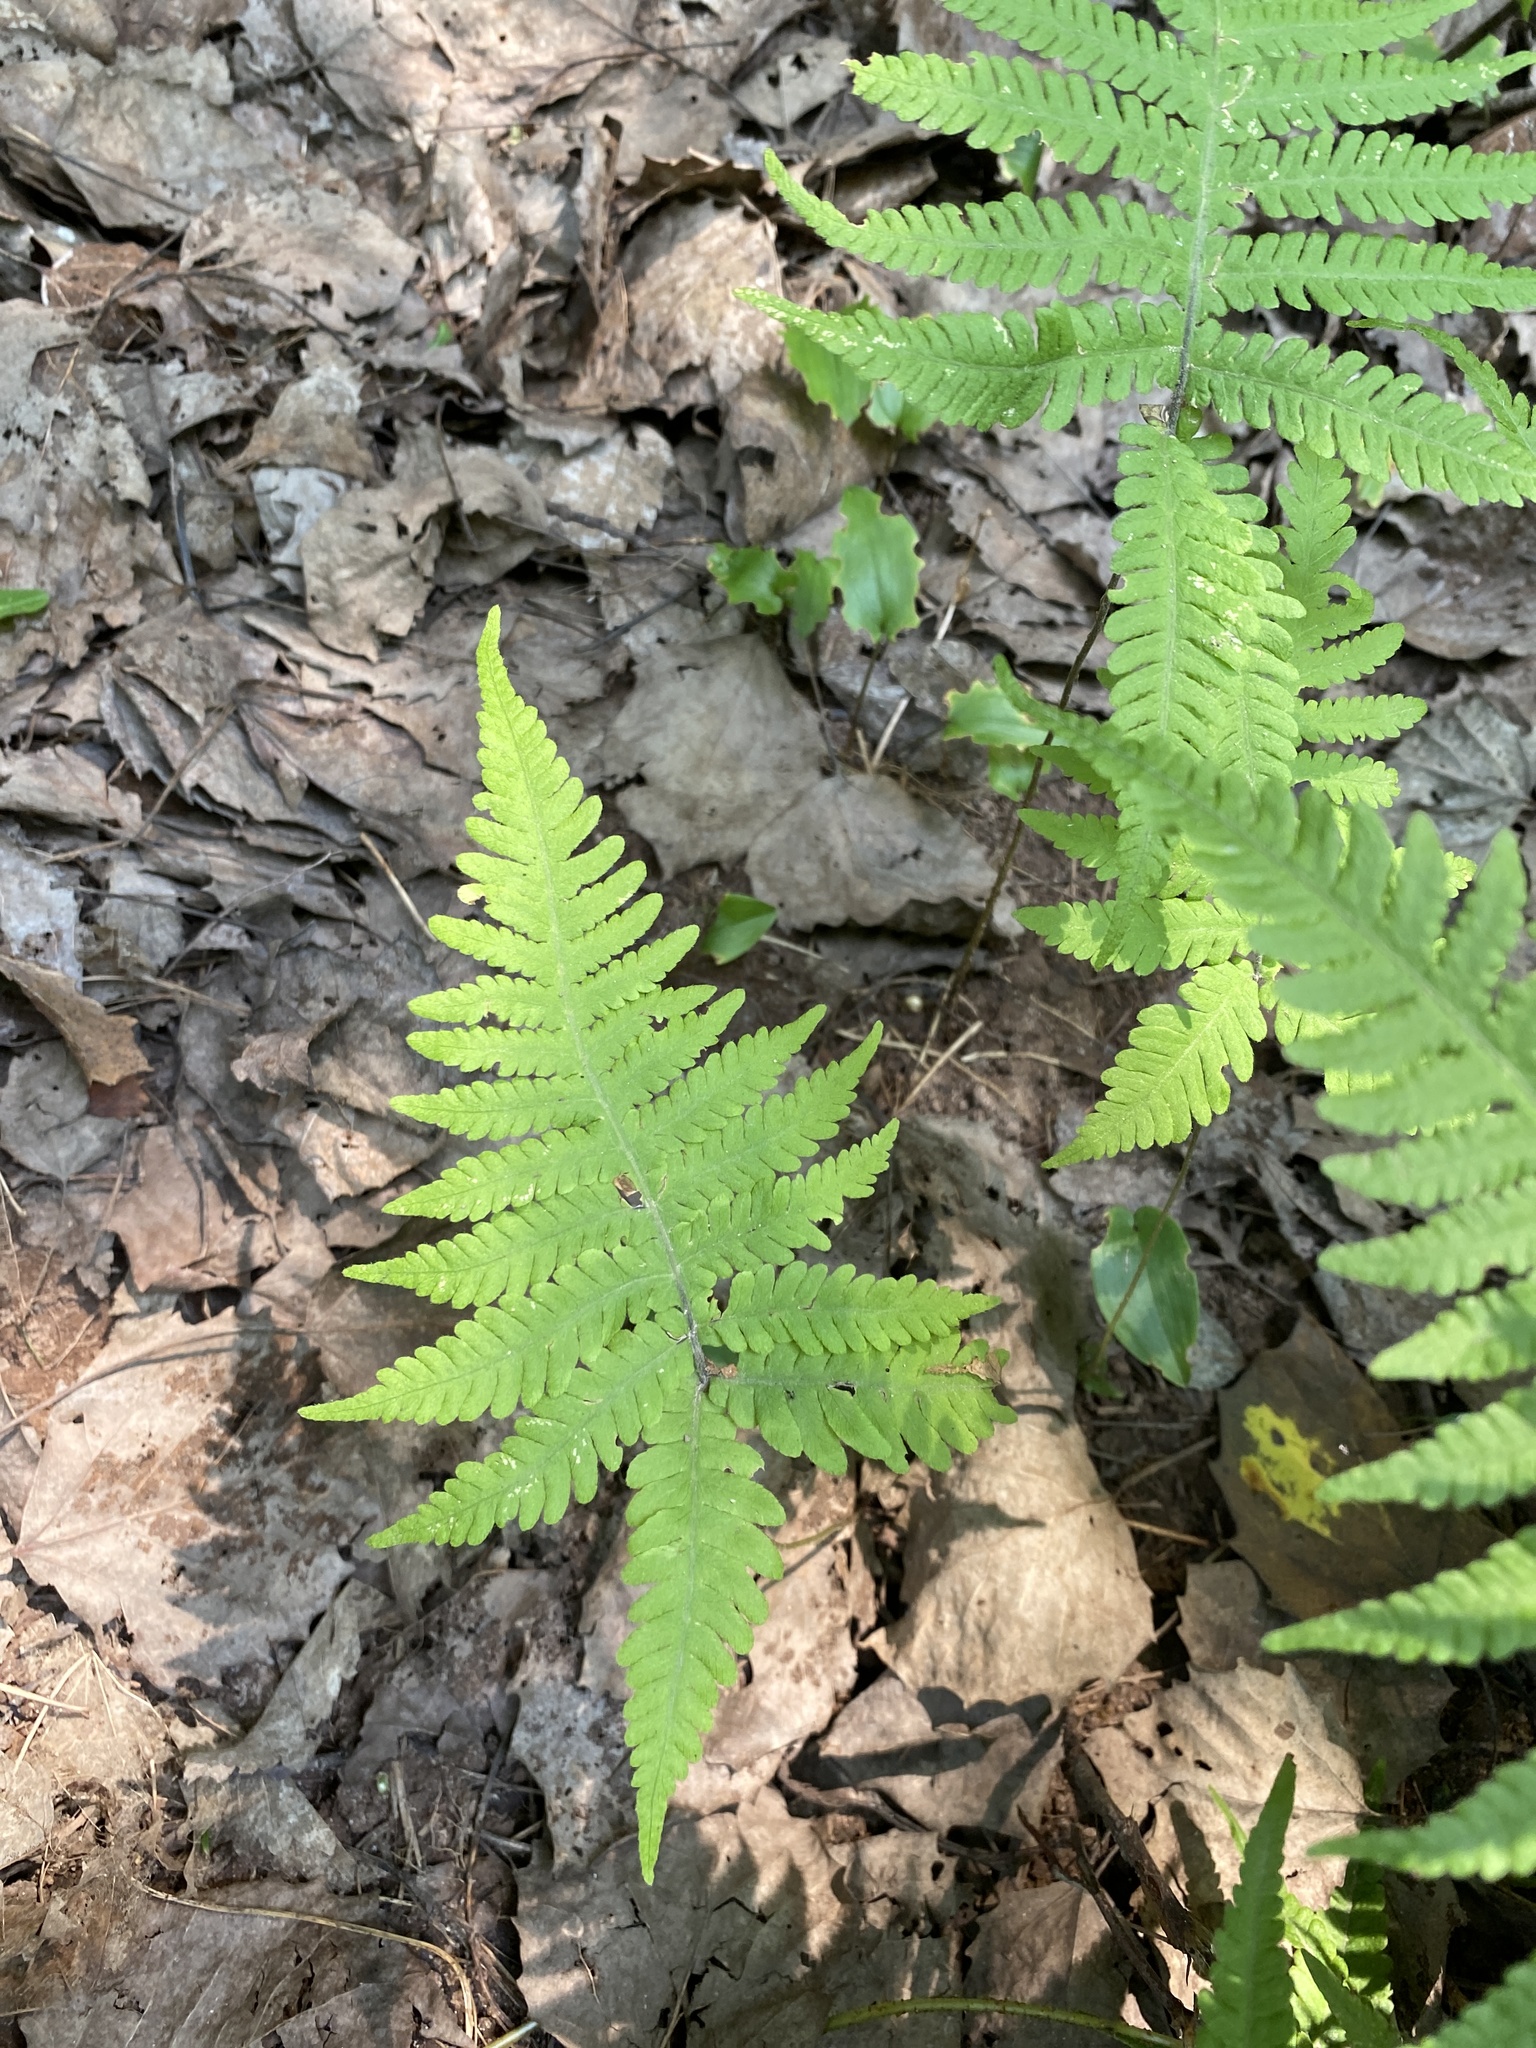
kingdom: Plantae
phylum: Tracheophyta
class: Polypodiopsida
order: Polypodiales
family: Thelypteridaceae
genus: Phegopteris
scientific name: Phegopteris connectilis
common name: Beech fern
